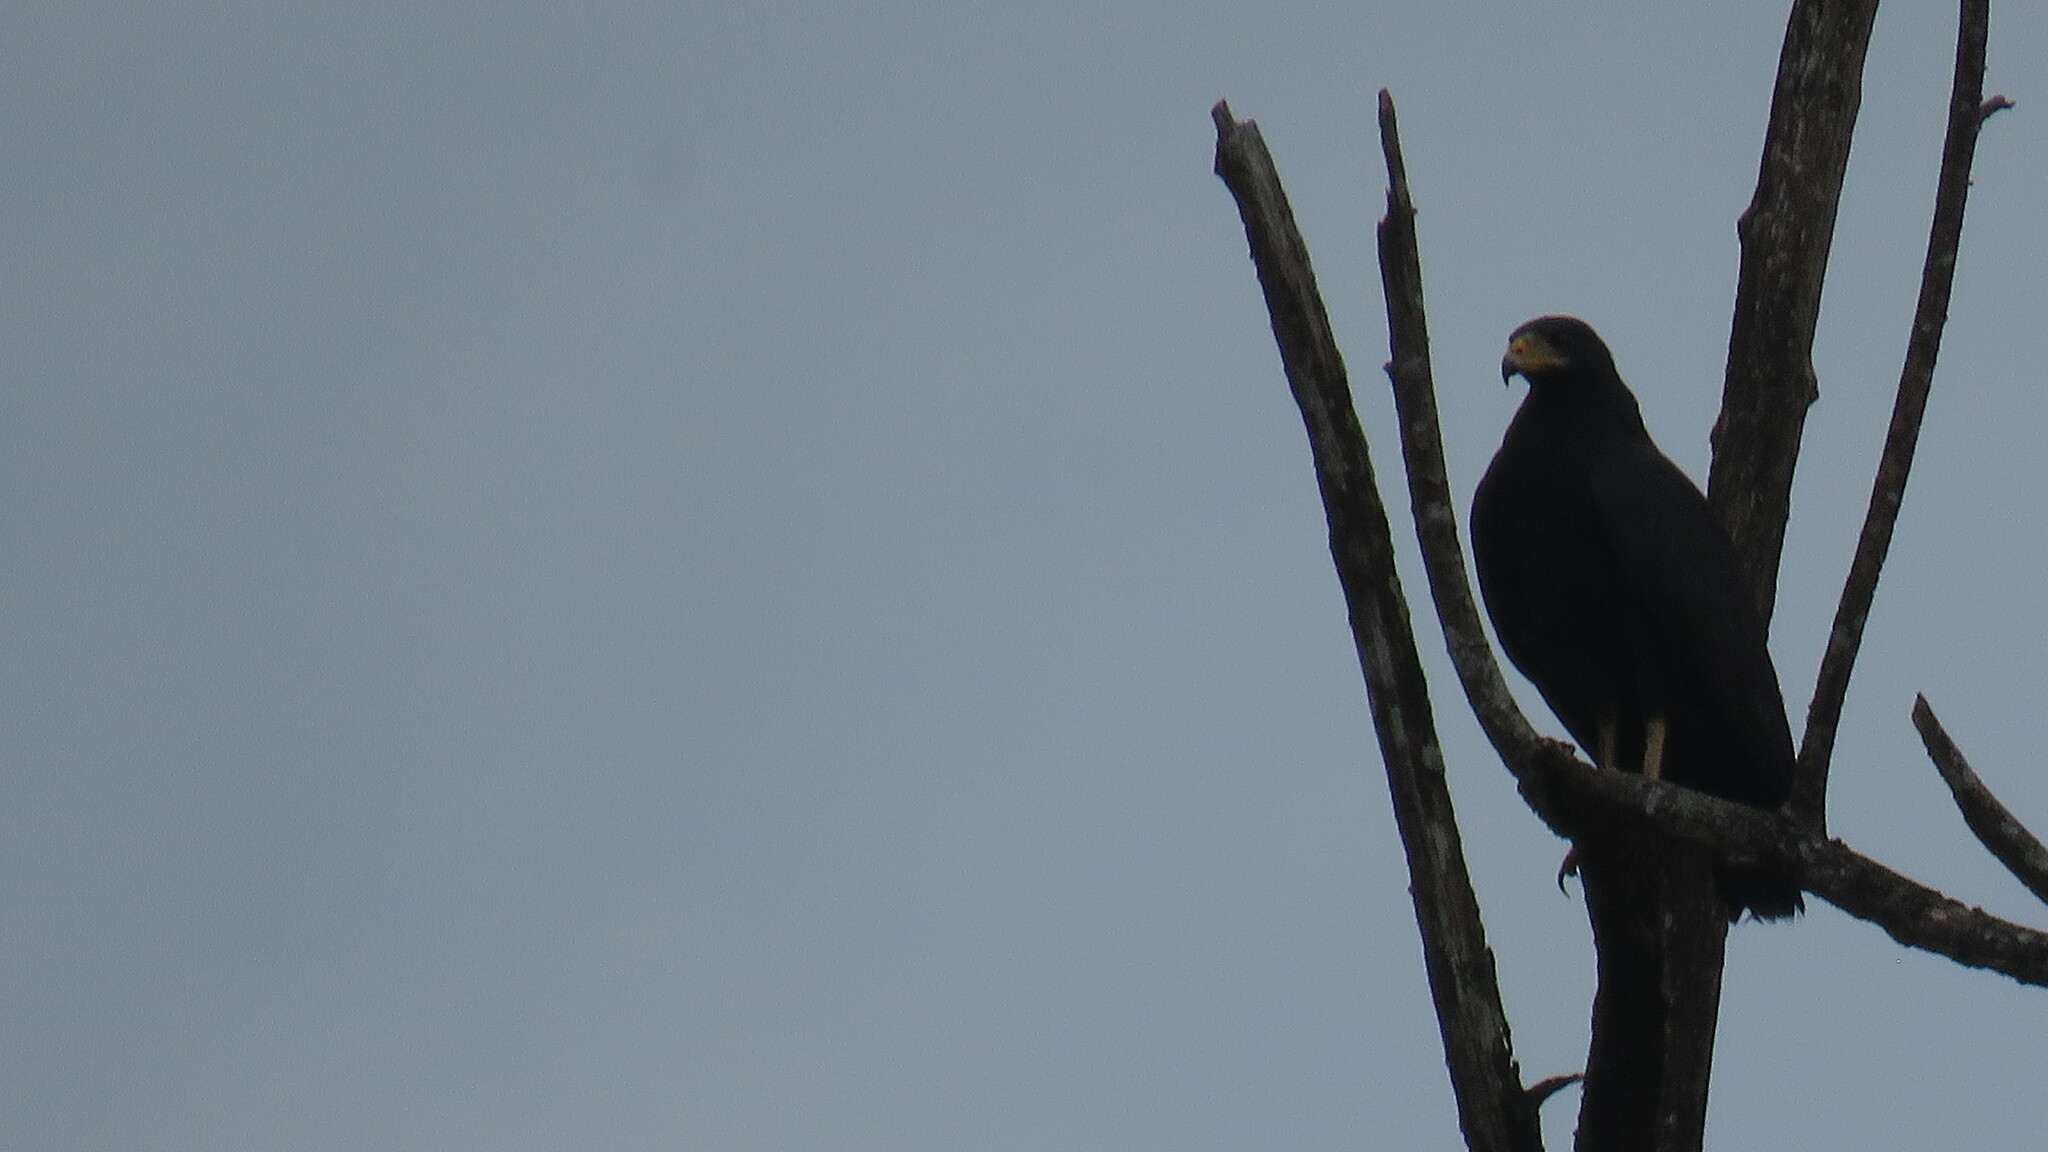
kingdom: Animalia
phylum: Chordata
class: Aves
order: Accipitriformes
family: Accipitridae
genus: Buteogallus
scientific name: Buteogallus anthracinus
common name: Common black hawk
